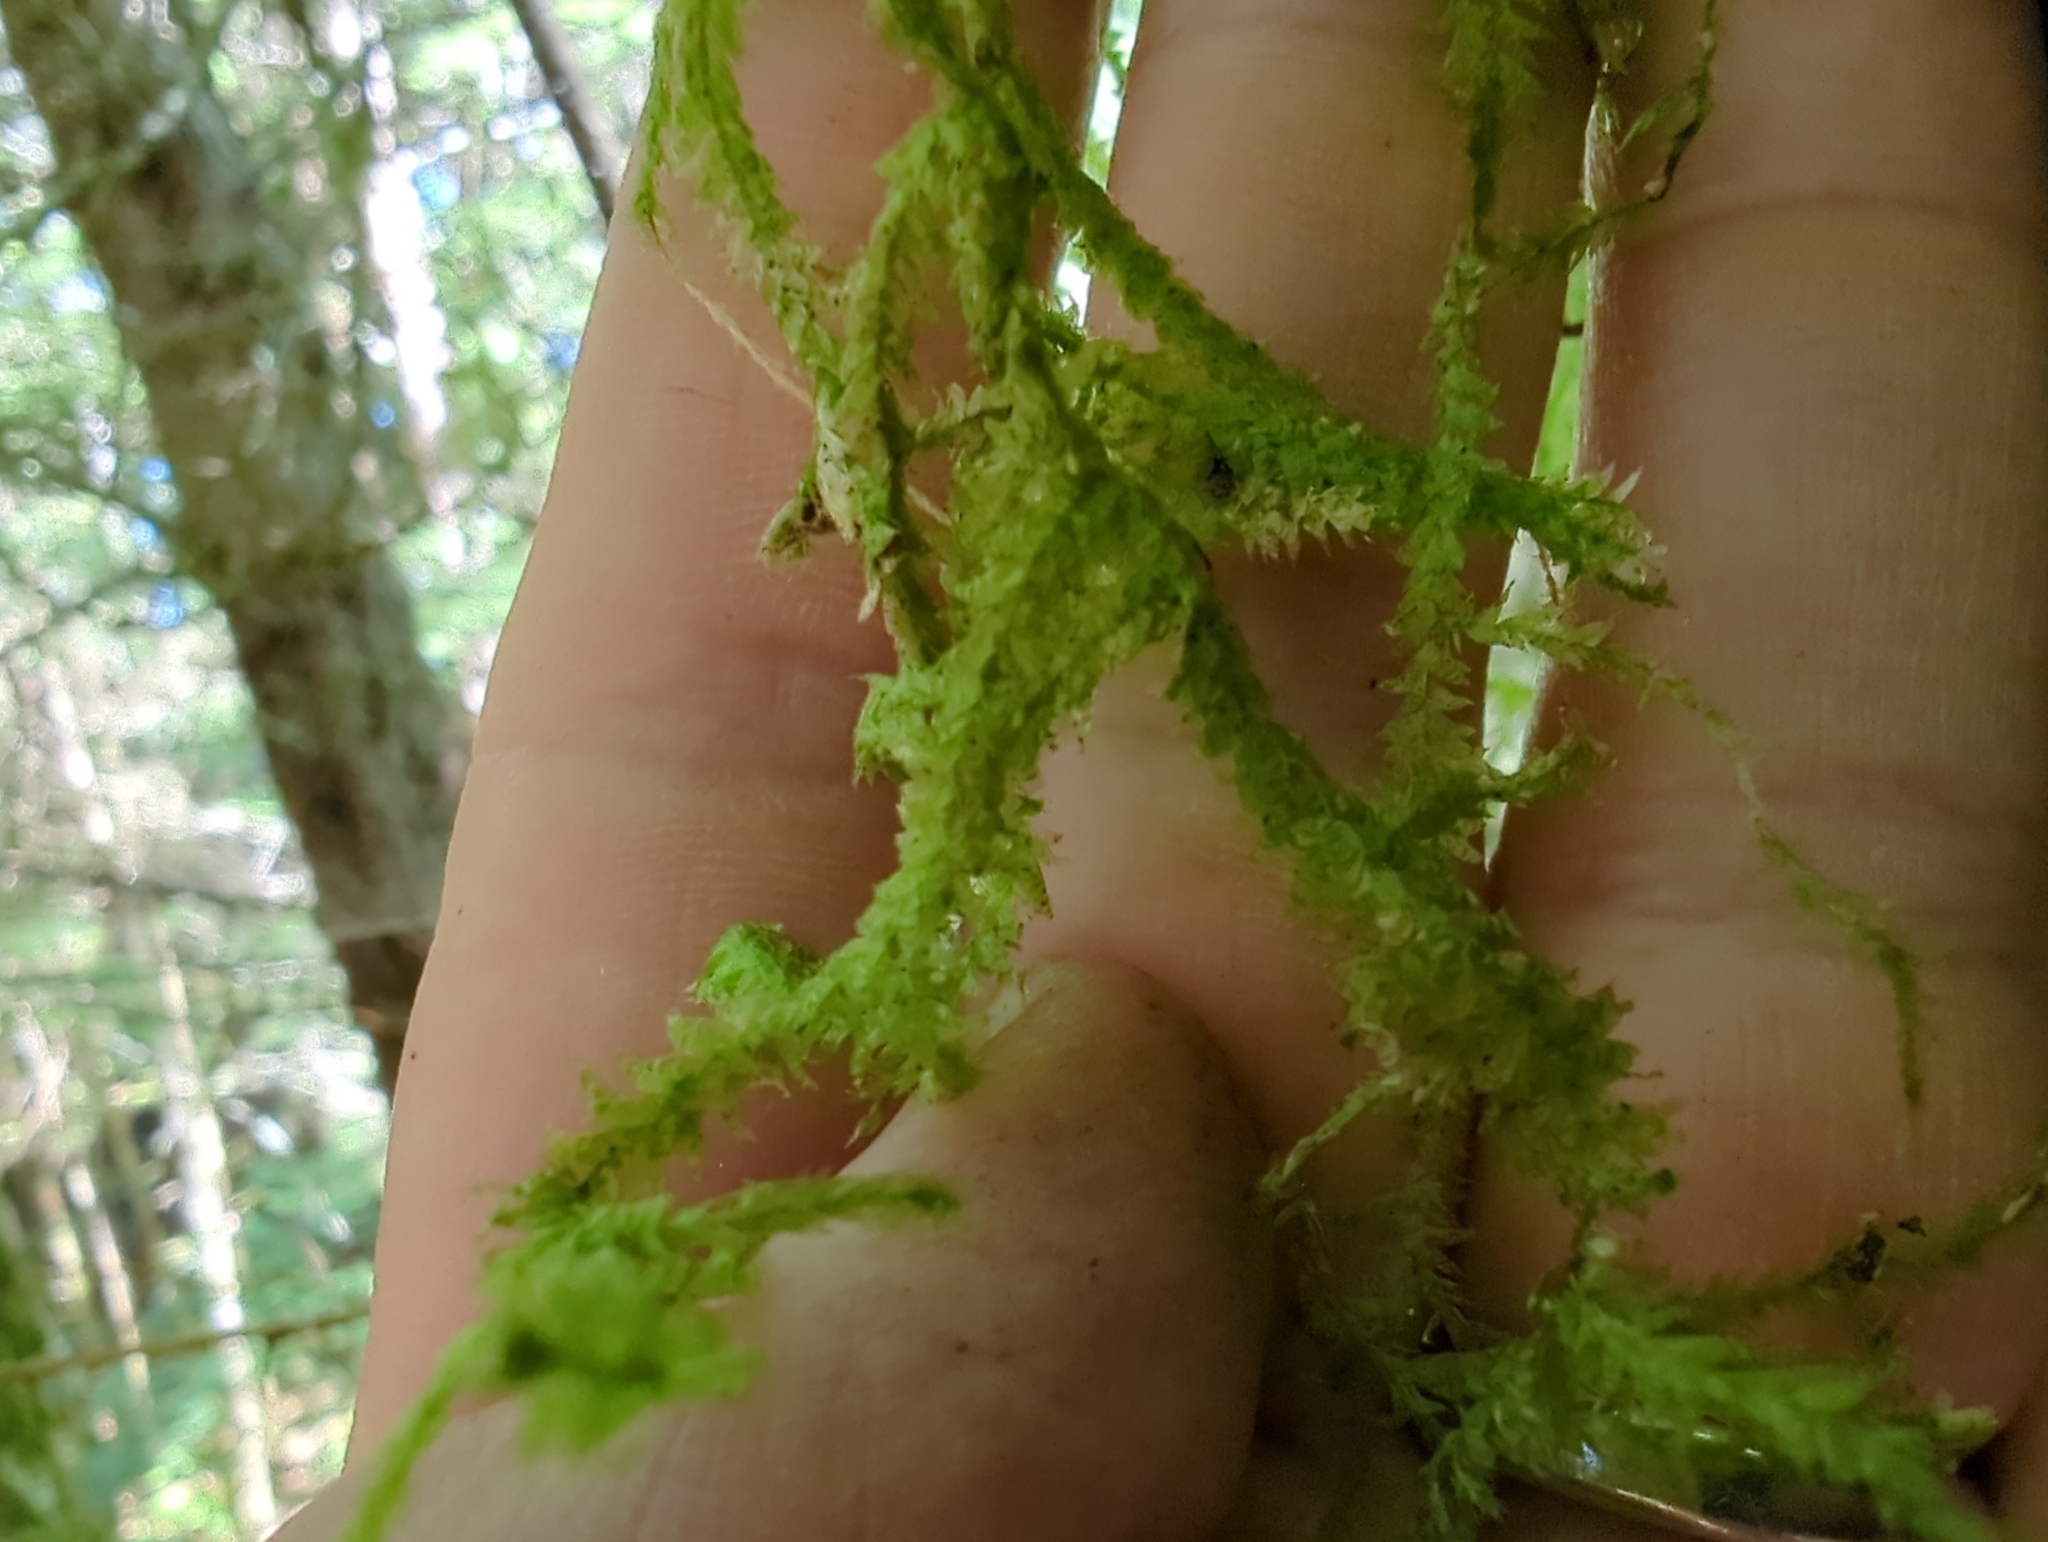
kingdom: Plantae
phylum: Bryophyta
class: Bryopsida
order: Hypnales
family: Neckeraceae
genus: Neckera
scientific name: Neckera douglasii
